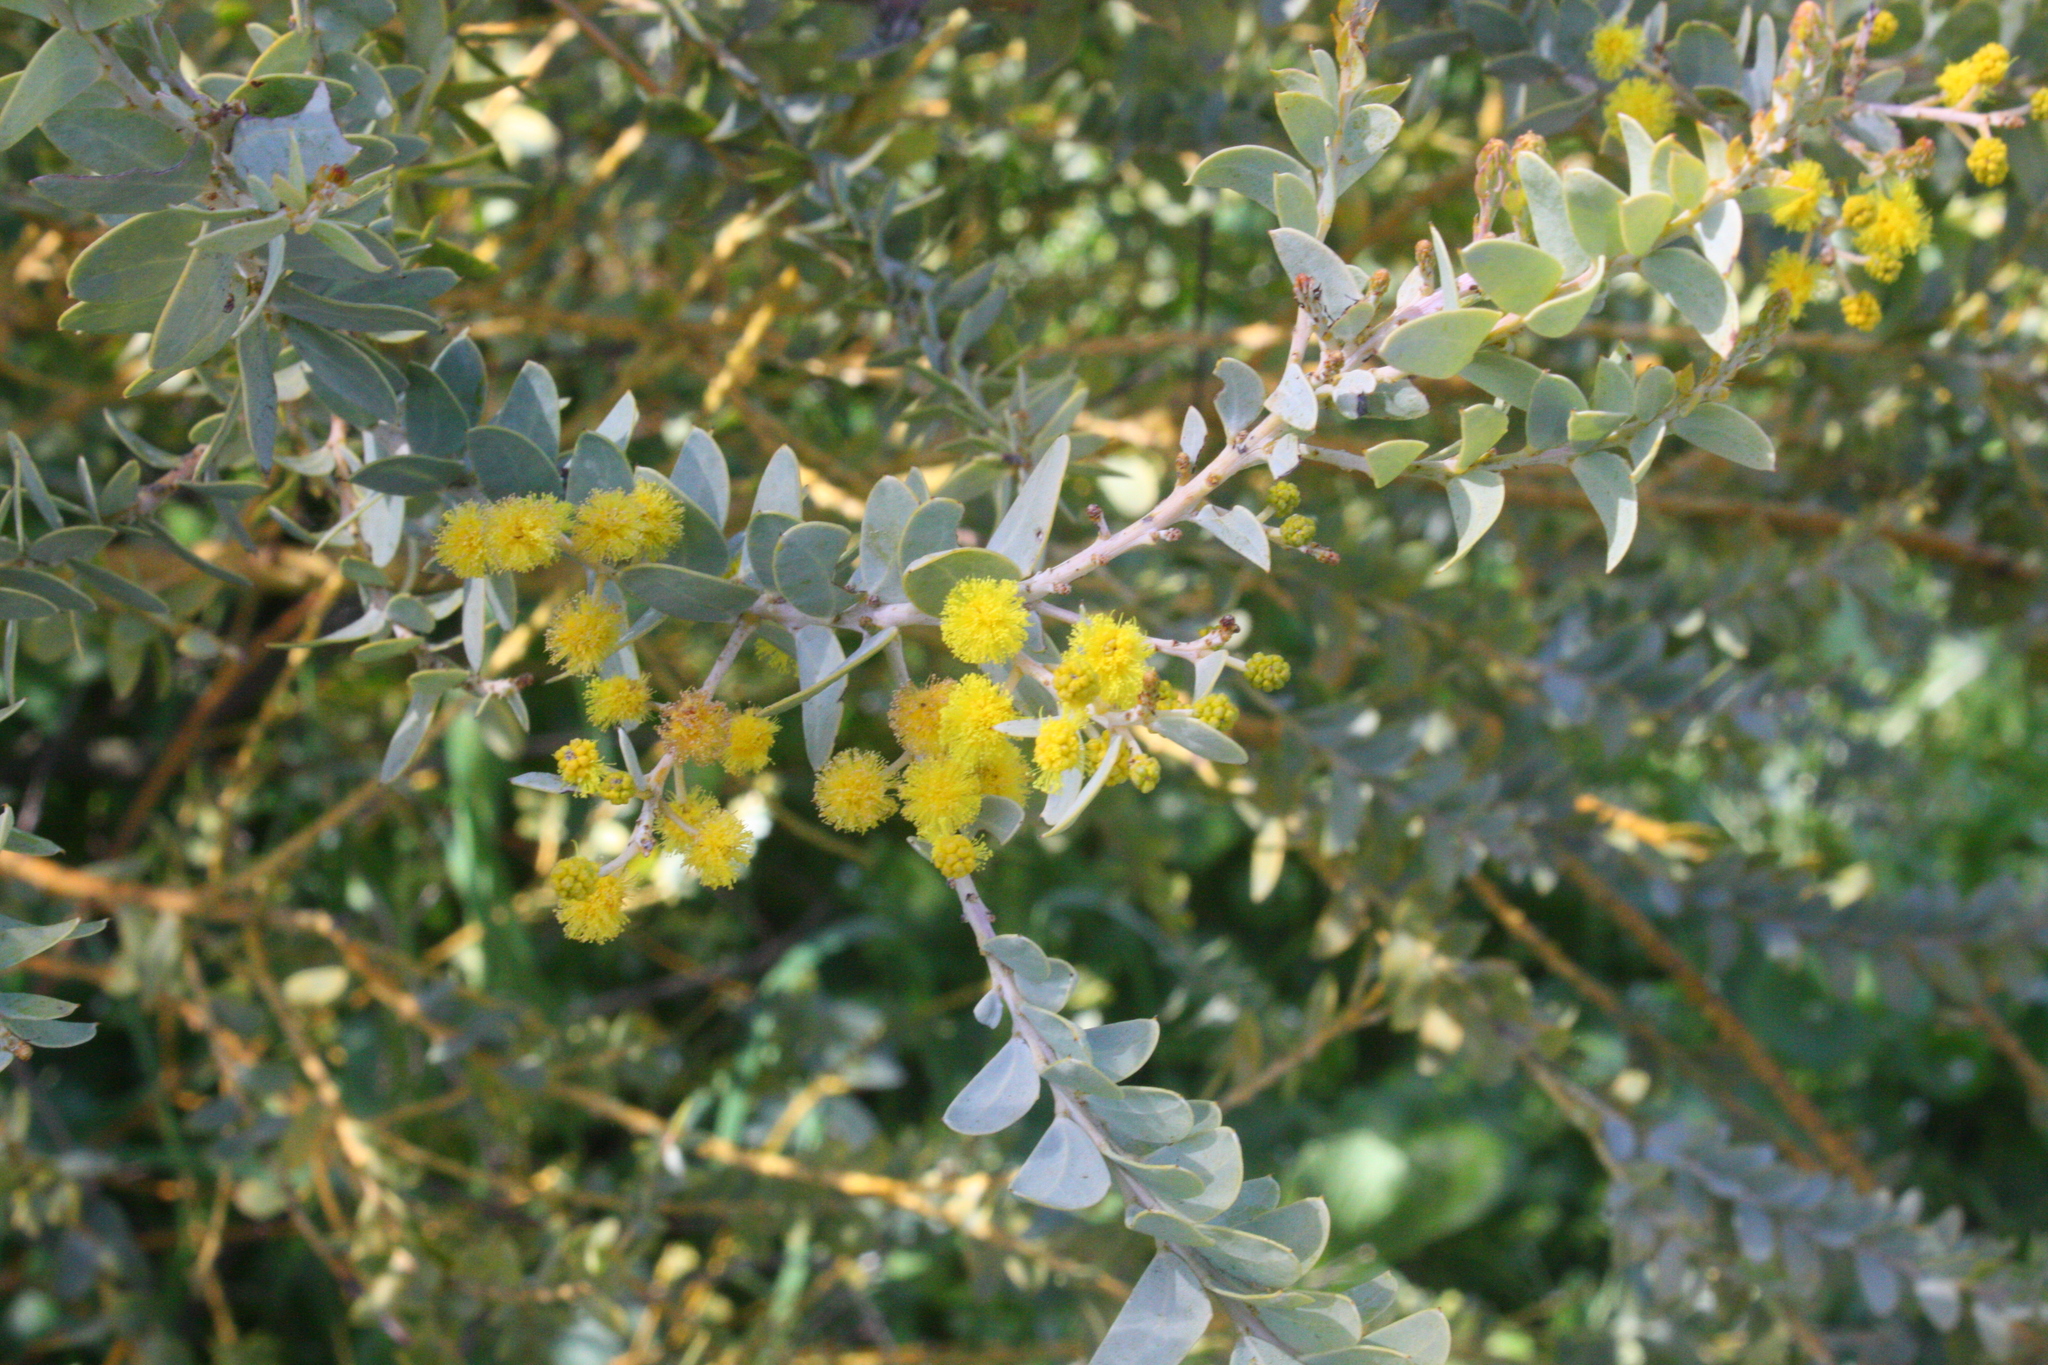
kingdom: Plantae
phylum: Tracheophyta
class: Magnoliopsida
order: Fabales
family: Fabaceae
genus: Acacia
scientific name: Acacia cultriformis
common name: Knife acacia
